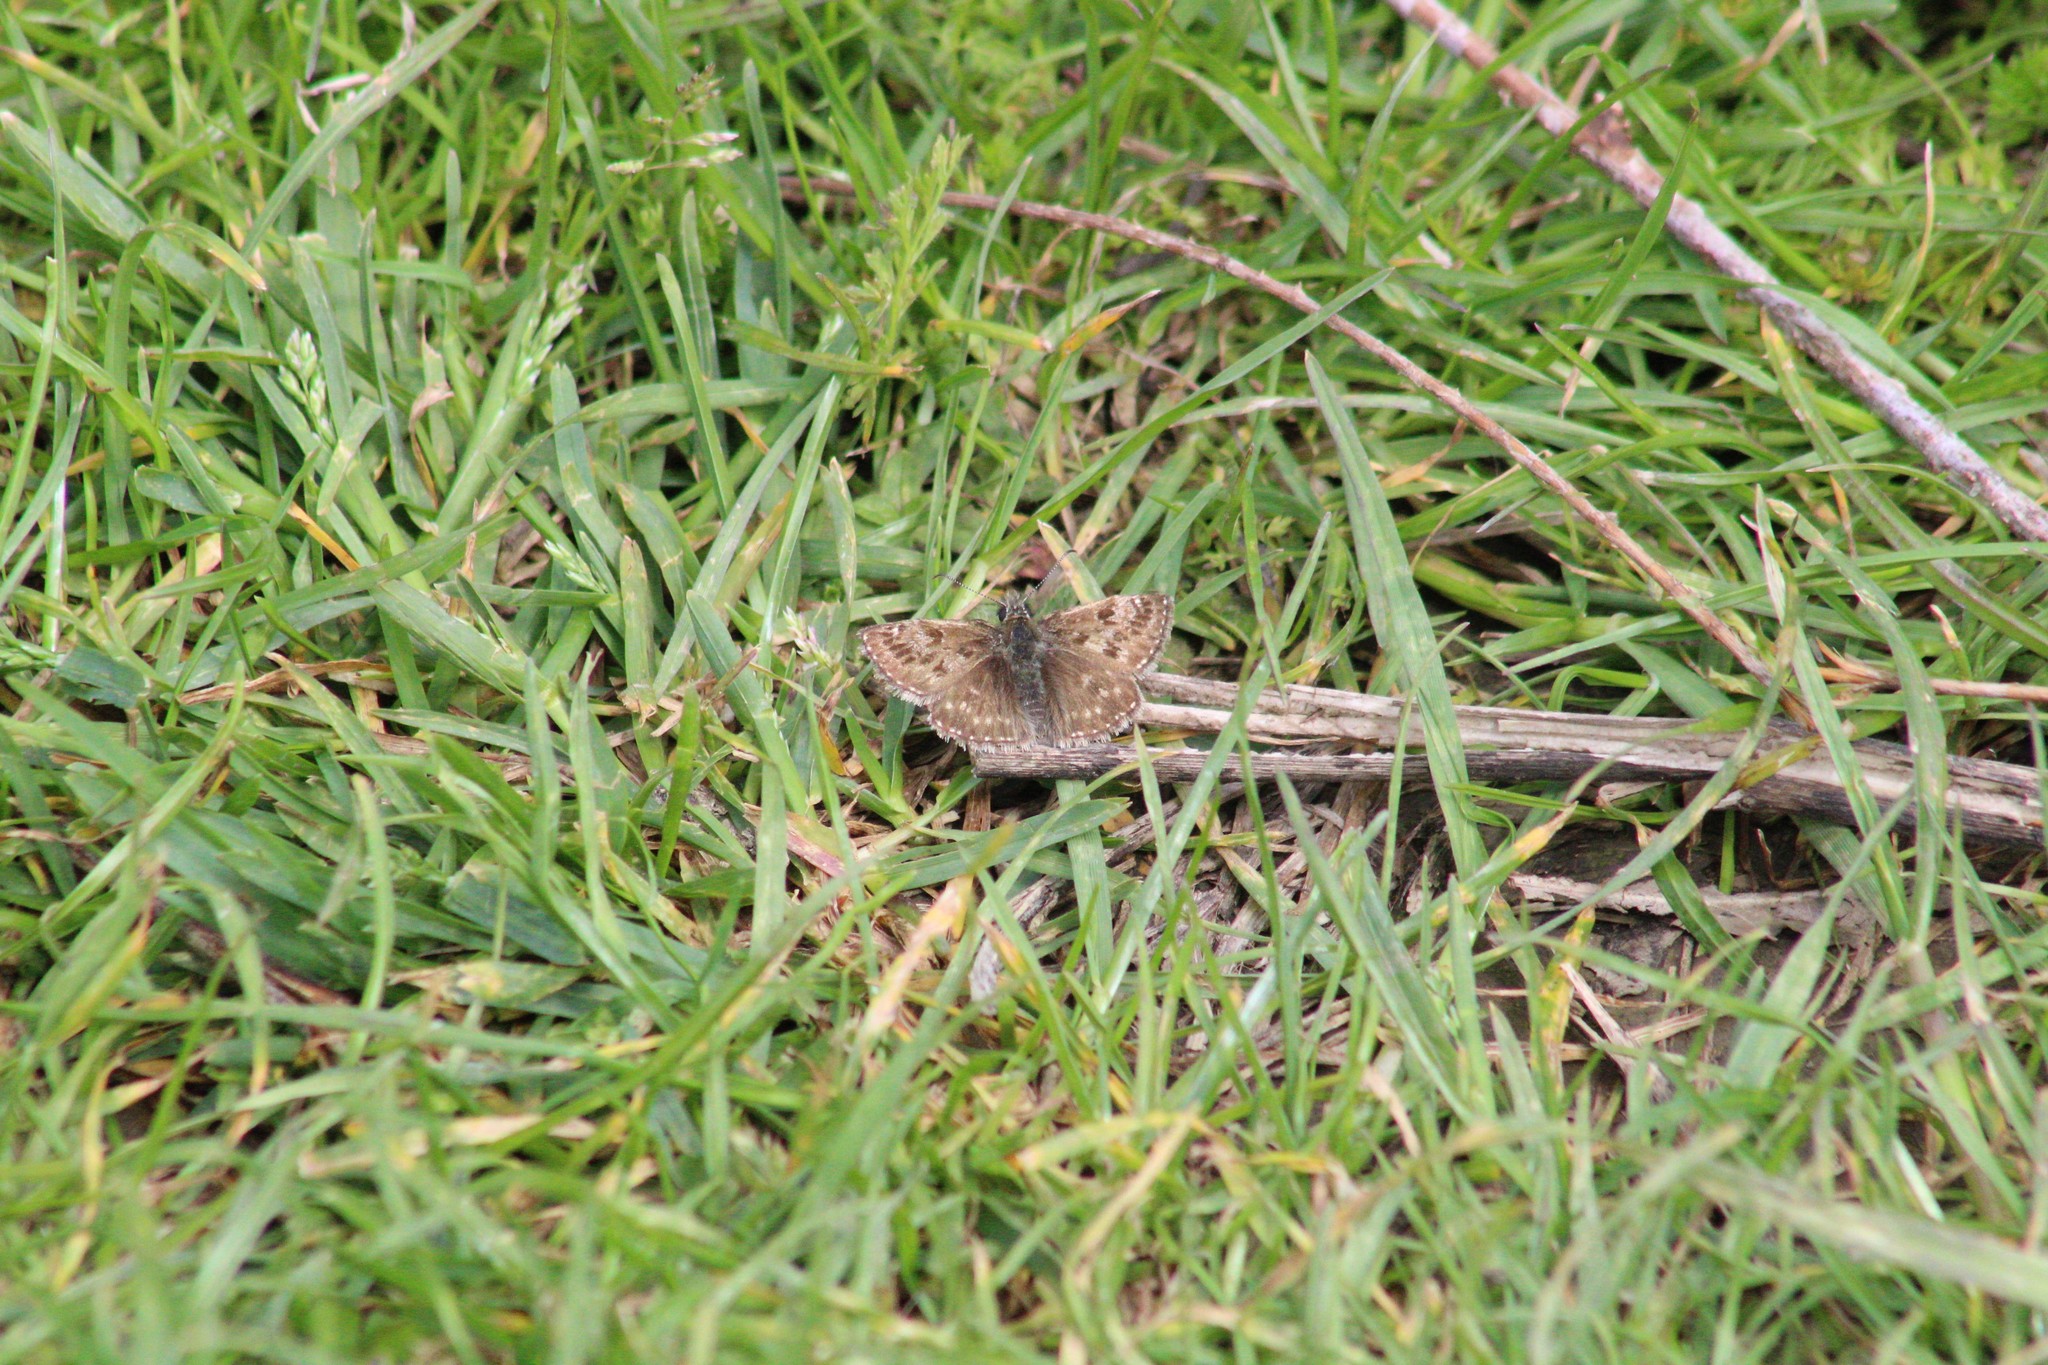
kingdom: Animalia
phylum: Arthropoda
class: Insecta
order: Lepidoptera
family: Hesperiidae
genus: Erynnis
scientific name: Erynnis tages
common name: Dingy skipper
